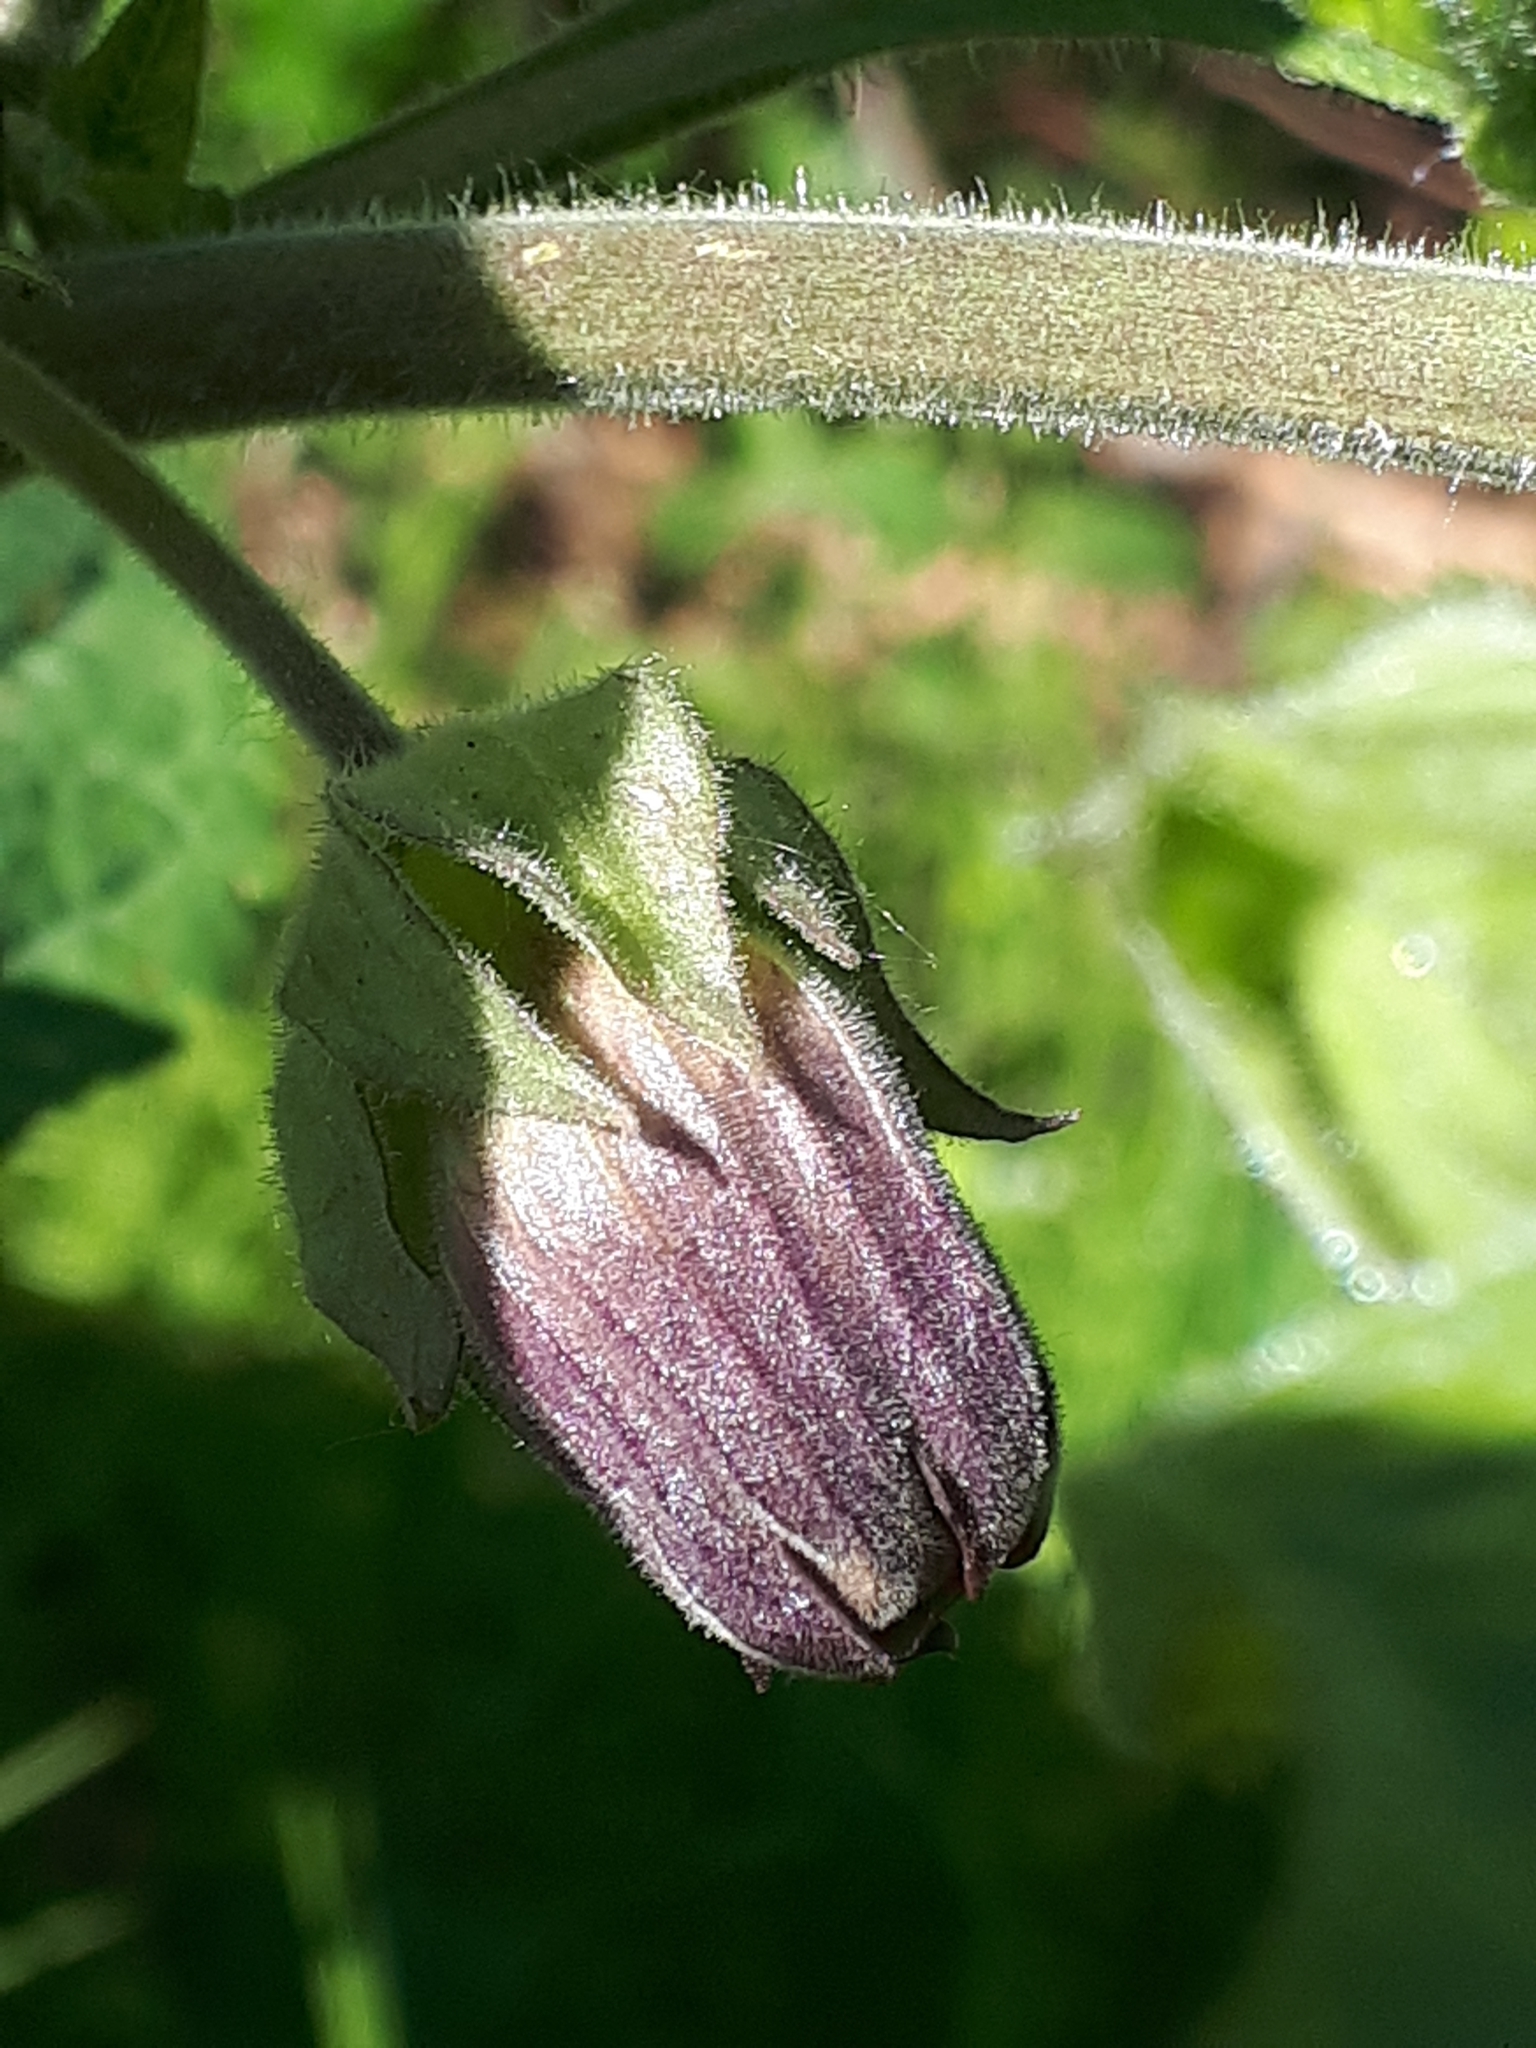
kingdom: Plantae
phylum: Tracheophyta
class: Magnoliopsida
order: Solanales
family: Solanaceae
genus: Atropa
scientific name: Atropa belladonna
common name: Deadly nightshade
